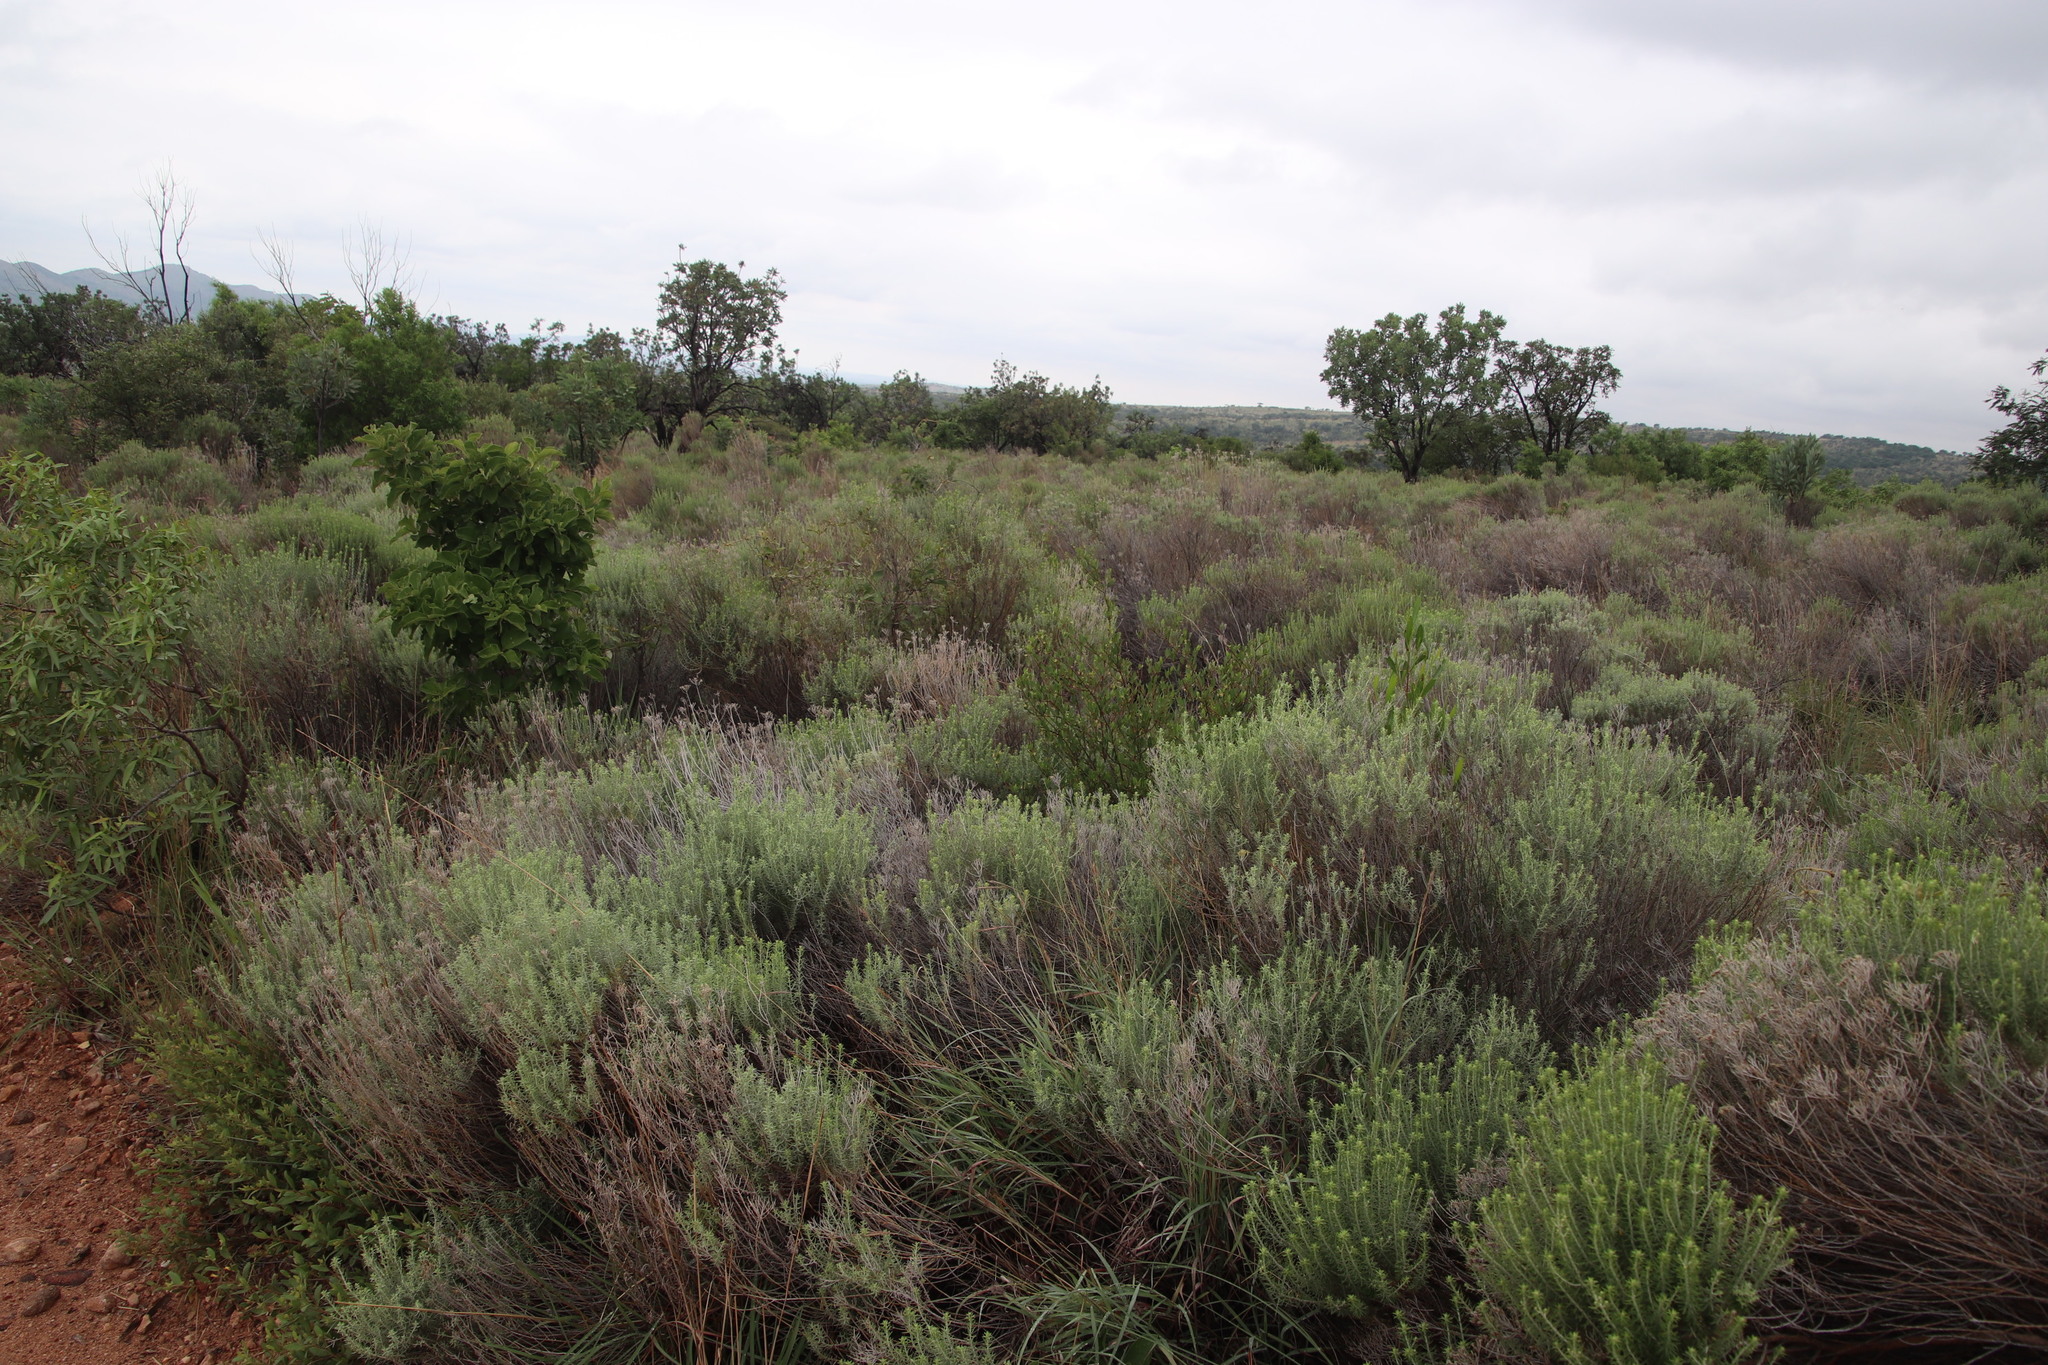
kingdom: Plantae
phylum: Tracheophyta
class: Magnoliopsida
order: Asterales
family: Asteraceae
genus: Helichrysum
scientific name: Helichrysum kraussii
